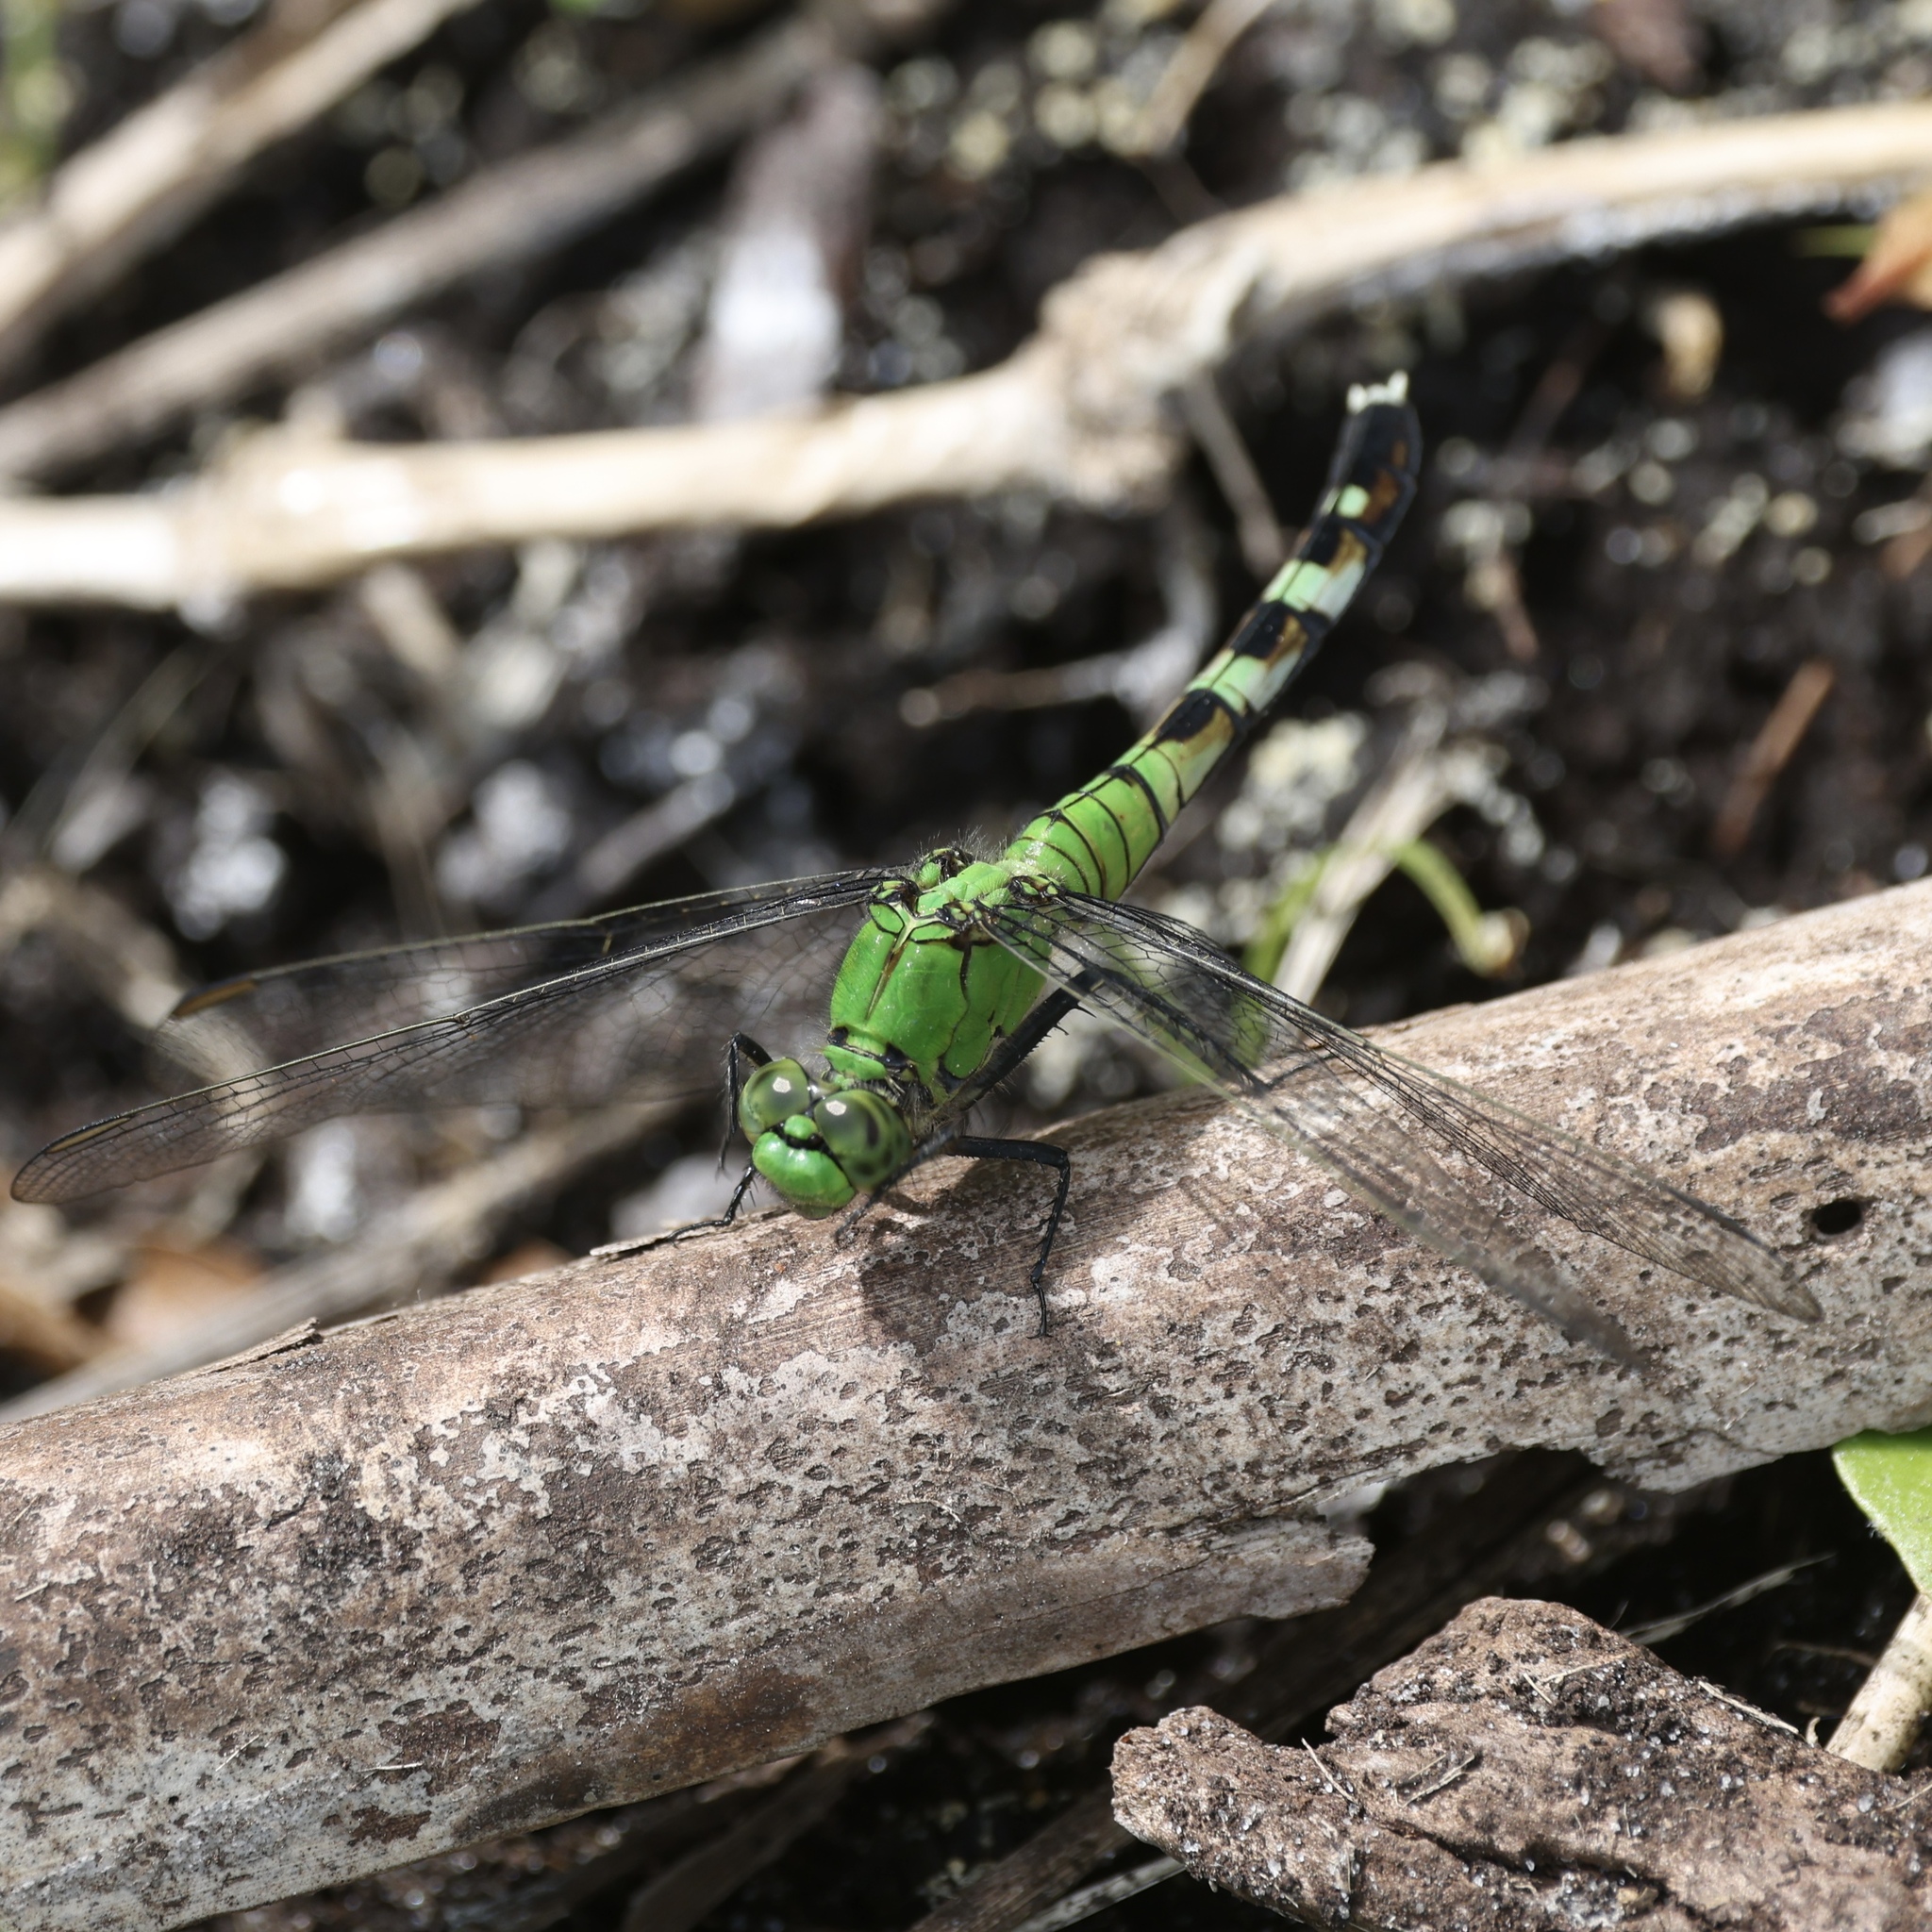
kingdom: Animalia
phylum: Arthropoda
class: Insecta
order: Odonata
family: Libellulidae
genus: Erythemis
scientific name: Erythemis simplicicollis
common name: Eastern pondhawk
